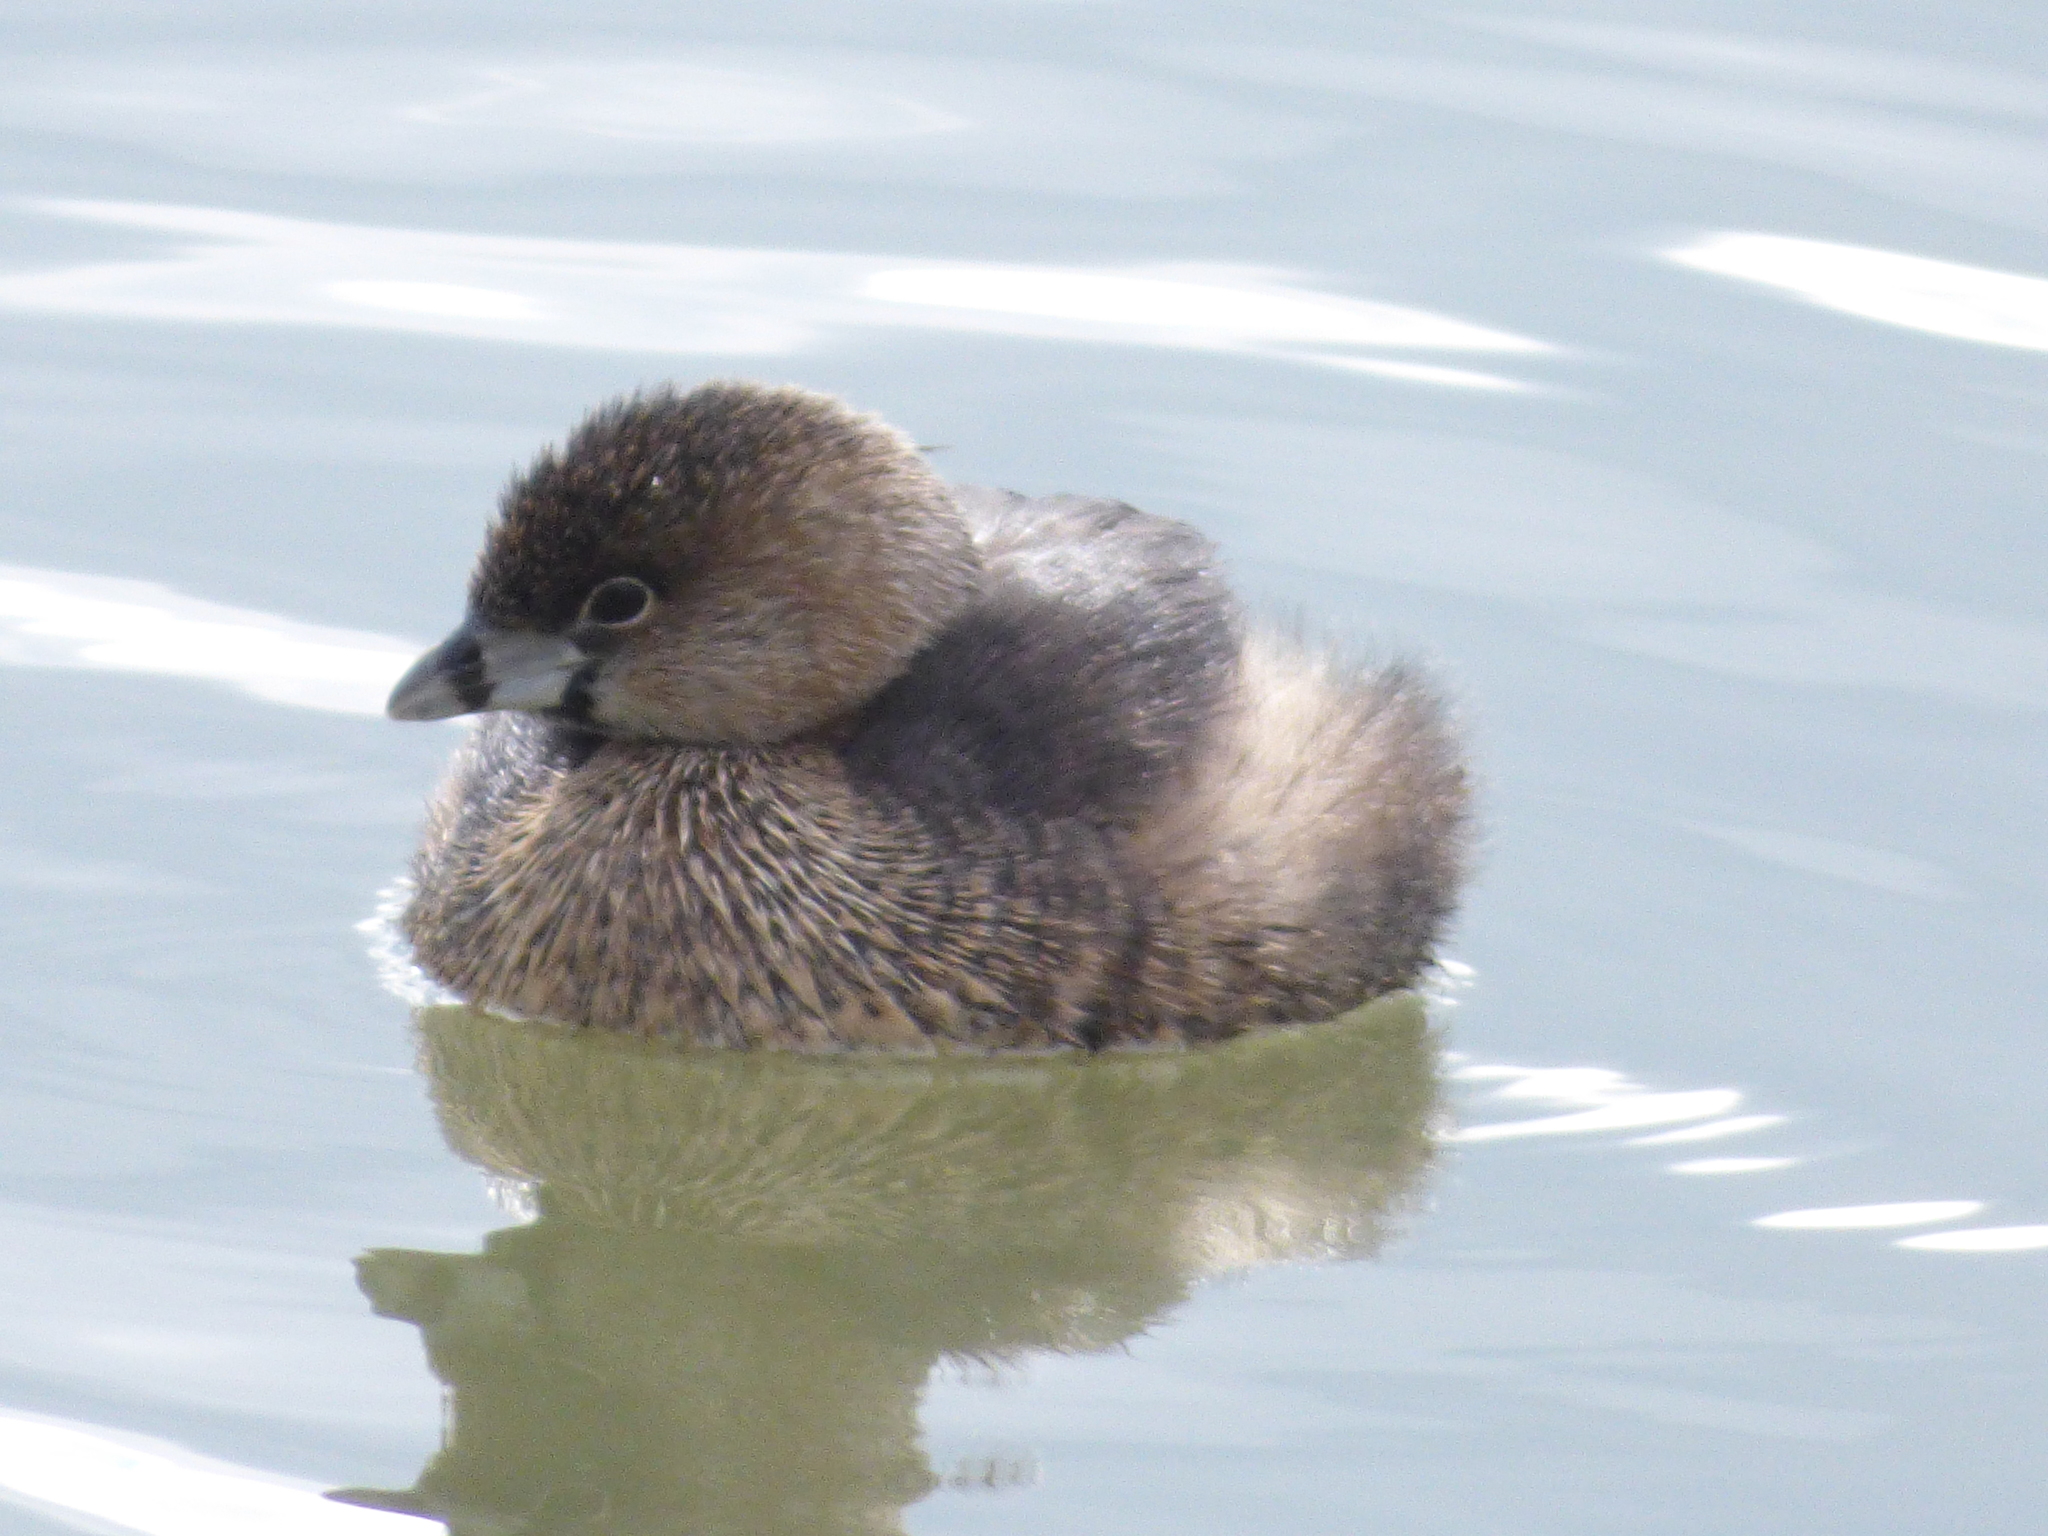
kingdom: Animalia
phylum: Chordata
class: Aves
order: Podicipediformes
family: Podicipedidae
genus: Podilymbus
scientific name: Podilymbus podiceps
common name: Pied-billed grebe
